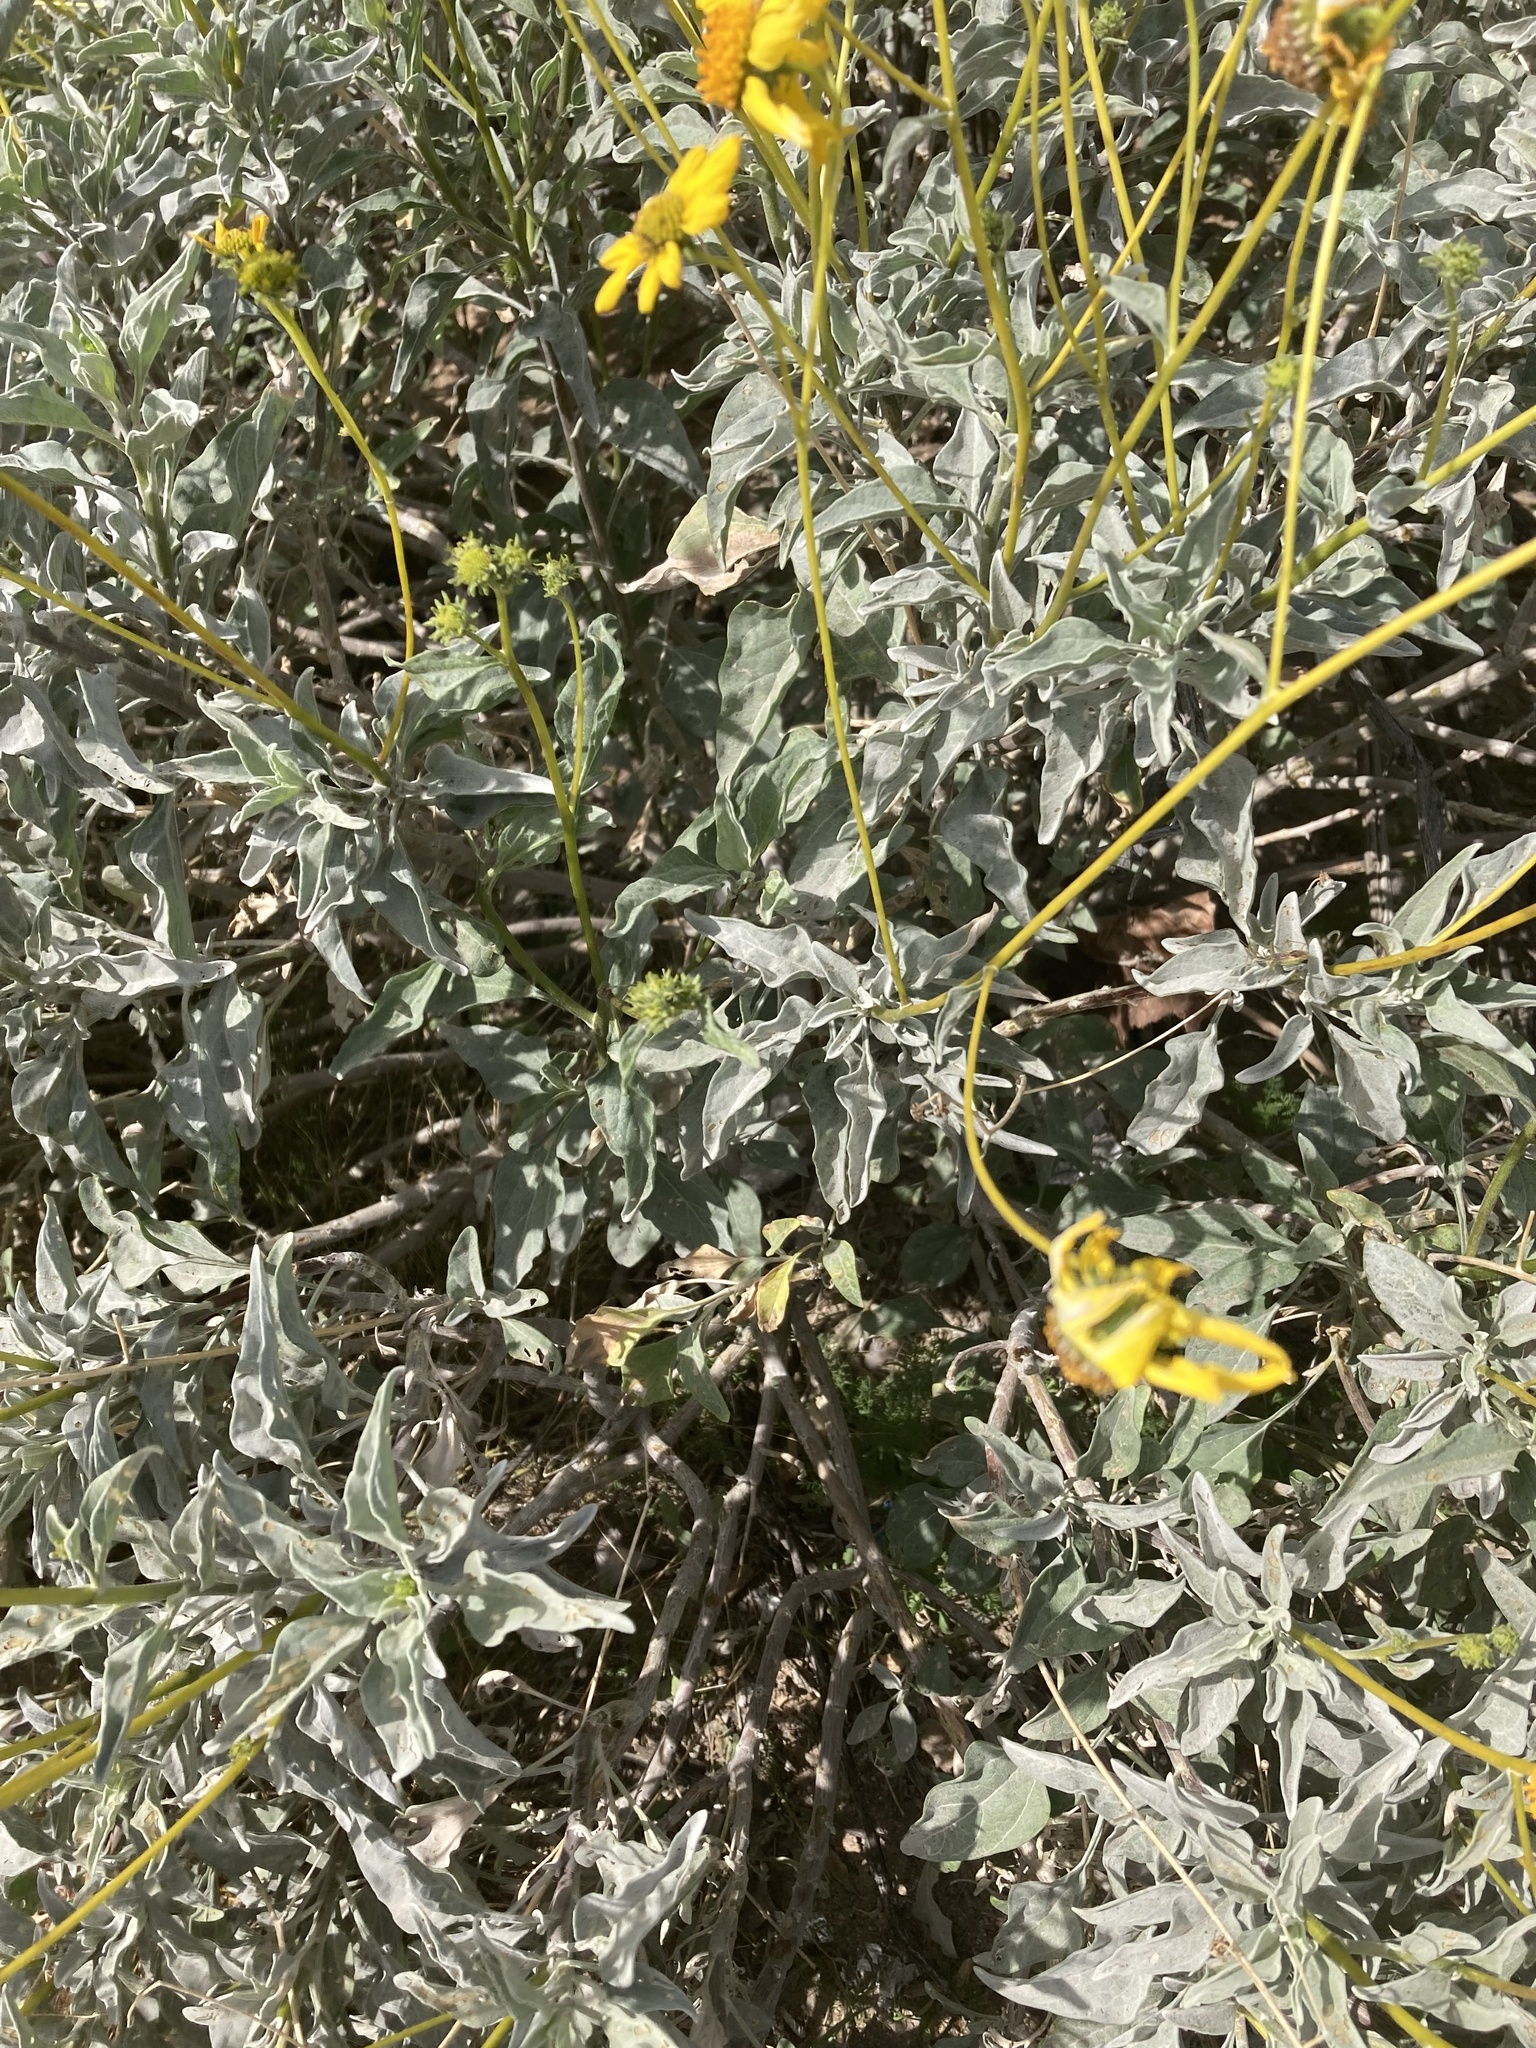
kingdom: Plantae
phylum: Tracheophyta
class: Magnoliopsida
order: Asterales
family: Asteraceae
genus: Encelia
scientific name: Encelia farinosa
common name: Brittlebush
